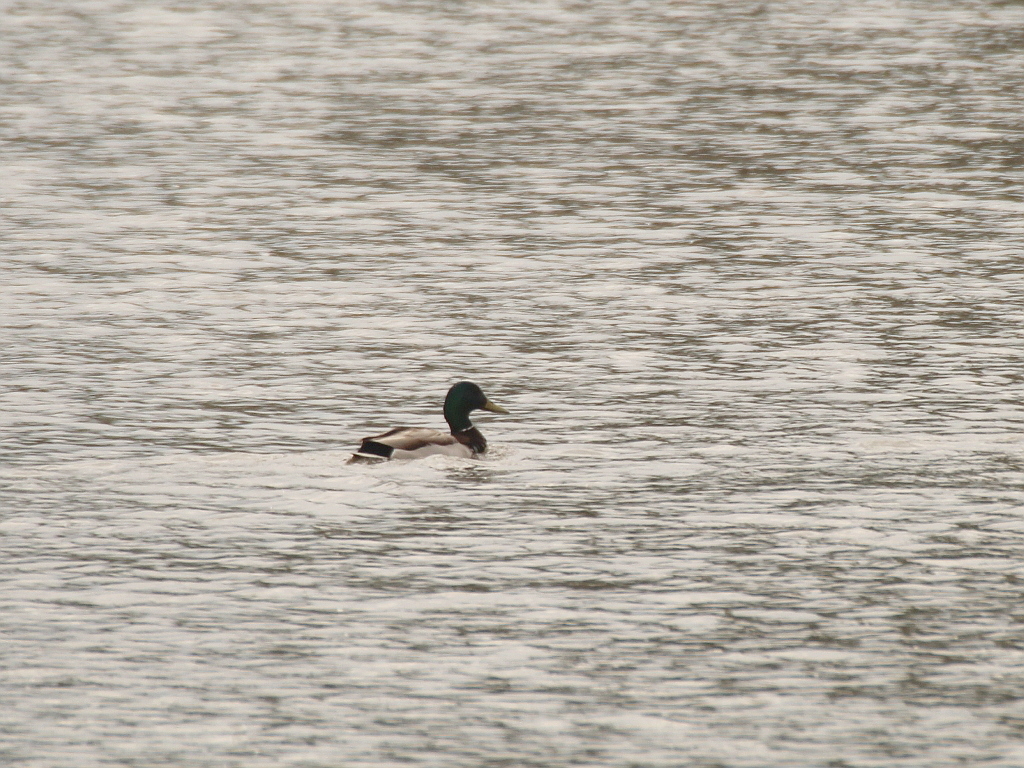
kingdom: Animalia
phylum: Chordata
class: Aves
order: Anseriformes
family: Anatidae
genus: Anas
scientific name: Anas platyrhynchos
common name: Mallard
